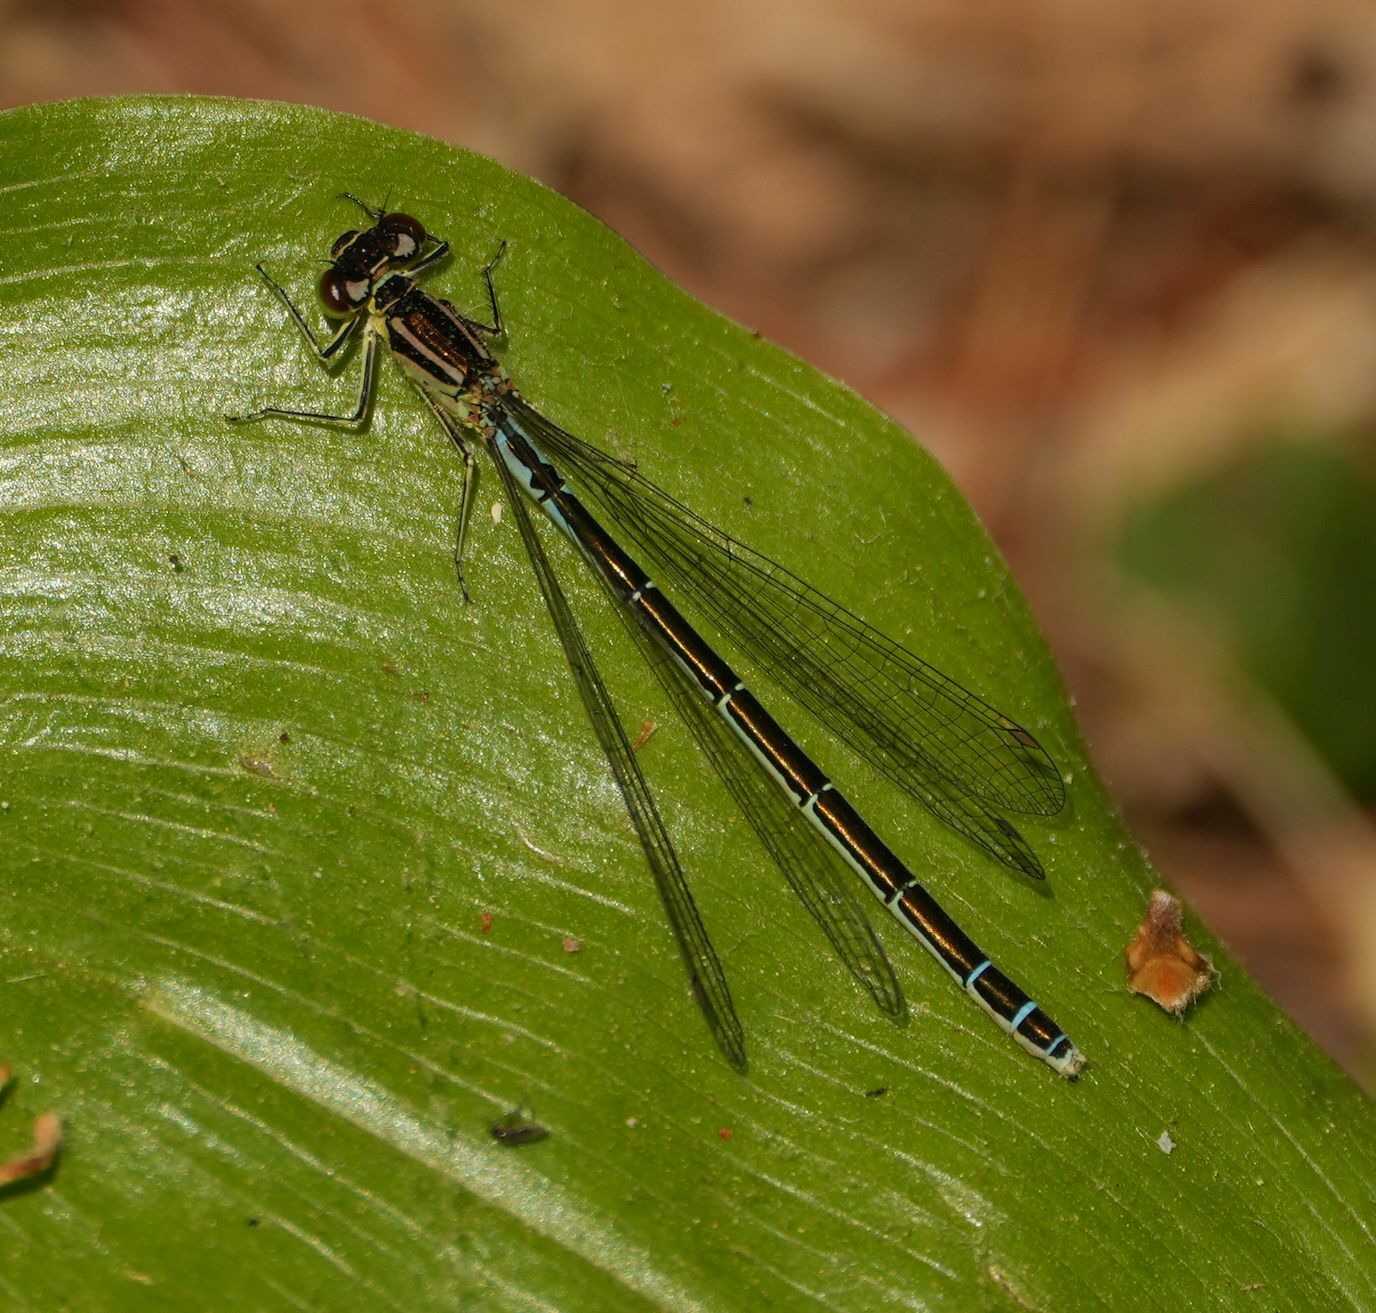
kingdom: Animalia
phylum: Arthropoda
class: Insecta
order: Odonata
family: Coenagrionidae
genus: Coenagrion
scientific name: Coenagrion resolutum
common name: Taiga bluet
